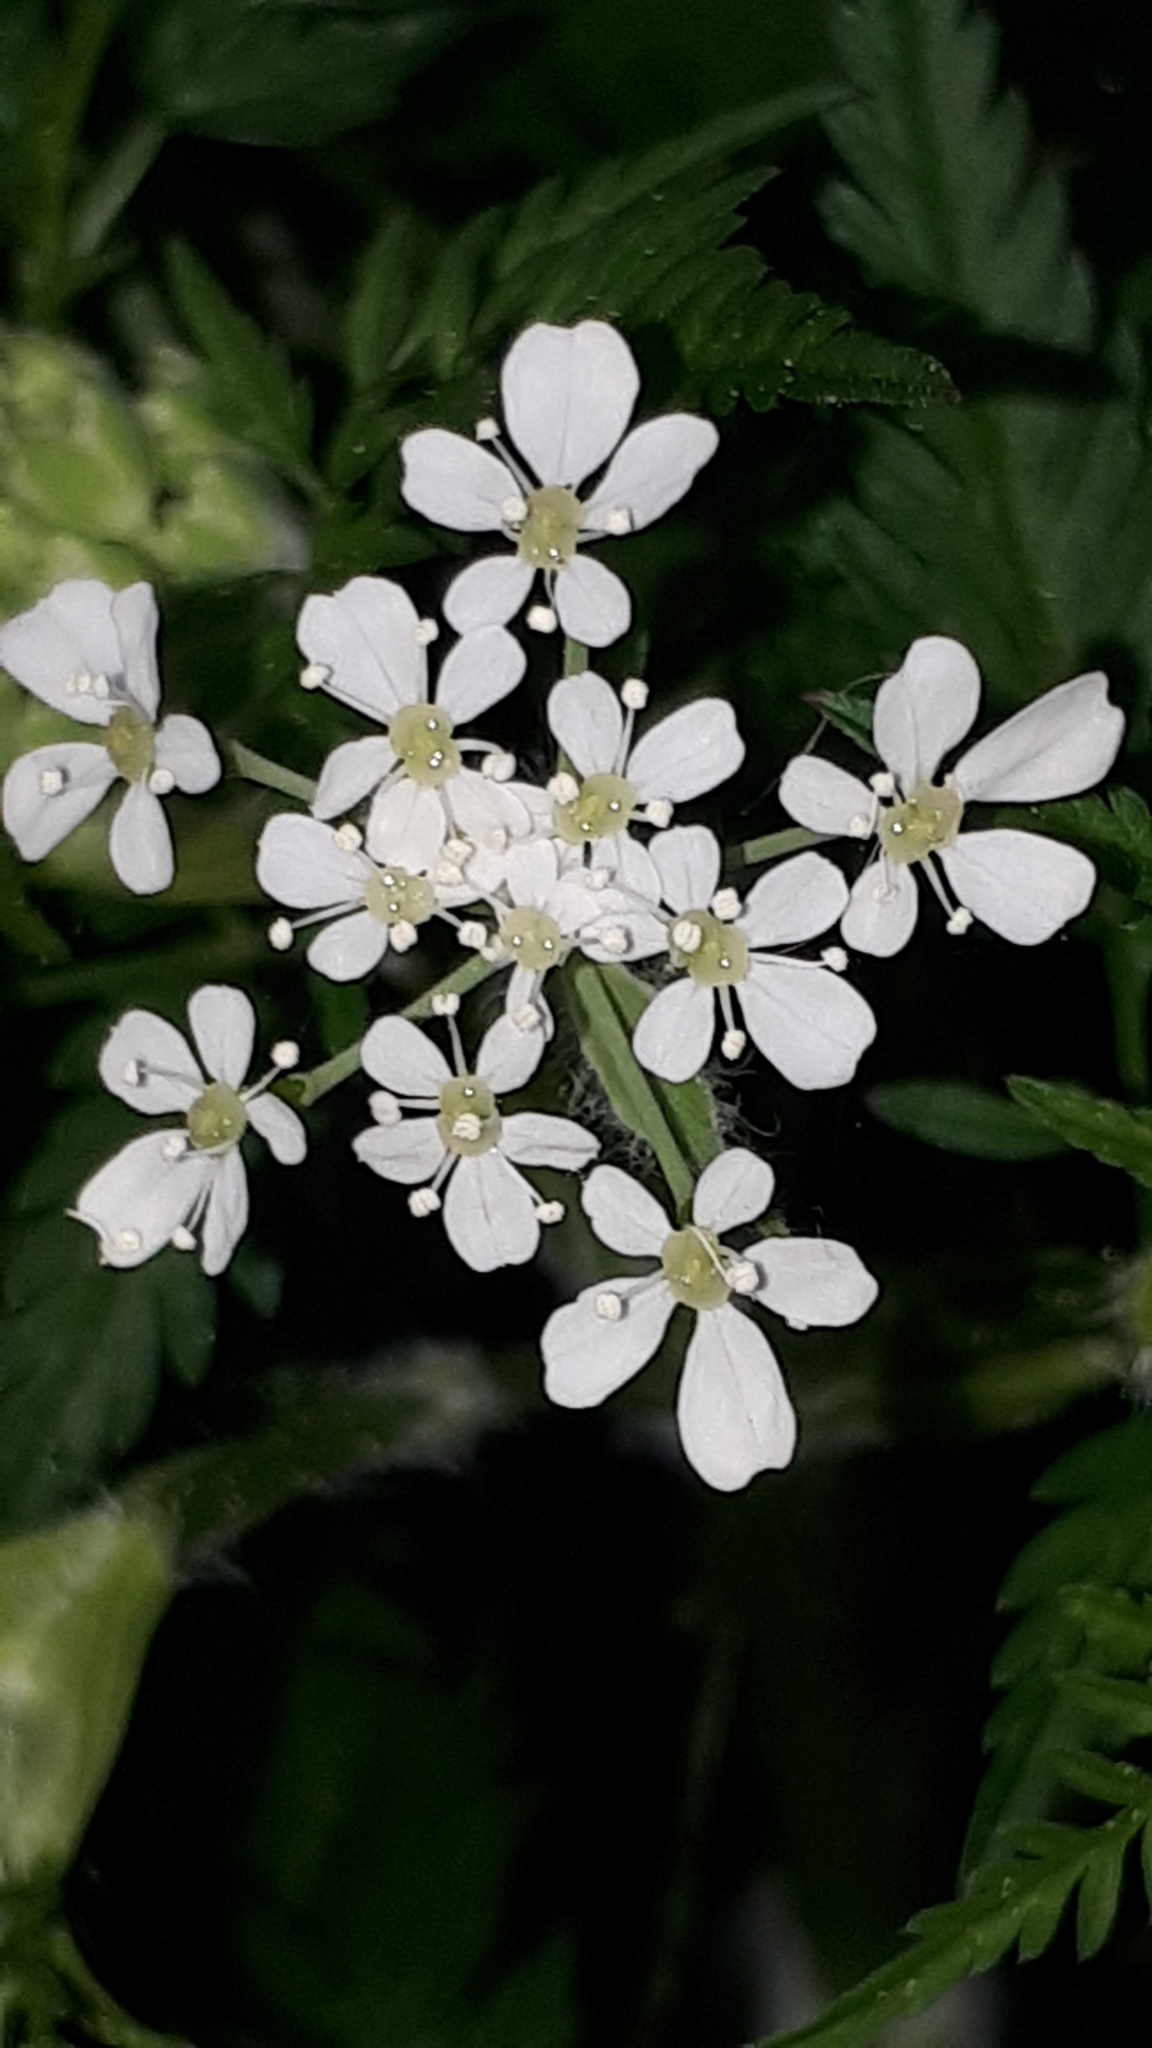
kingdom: Plantae
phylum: Tracheophyta
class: Magnoliopsida
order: Apiales
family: Apiaceae
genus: Anthriscus
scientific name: Anthriscus sylvestris
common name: Cow parsley
